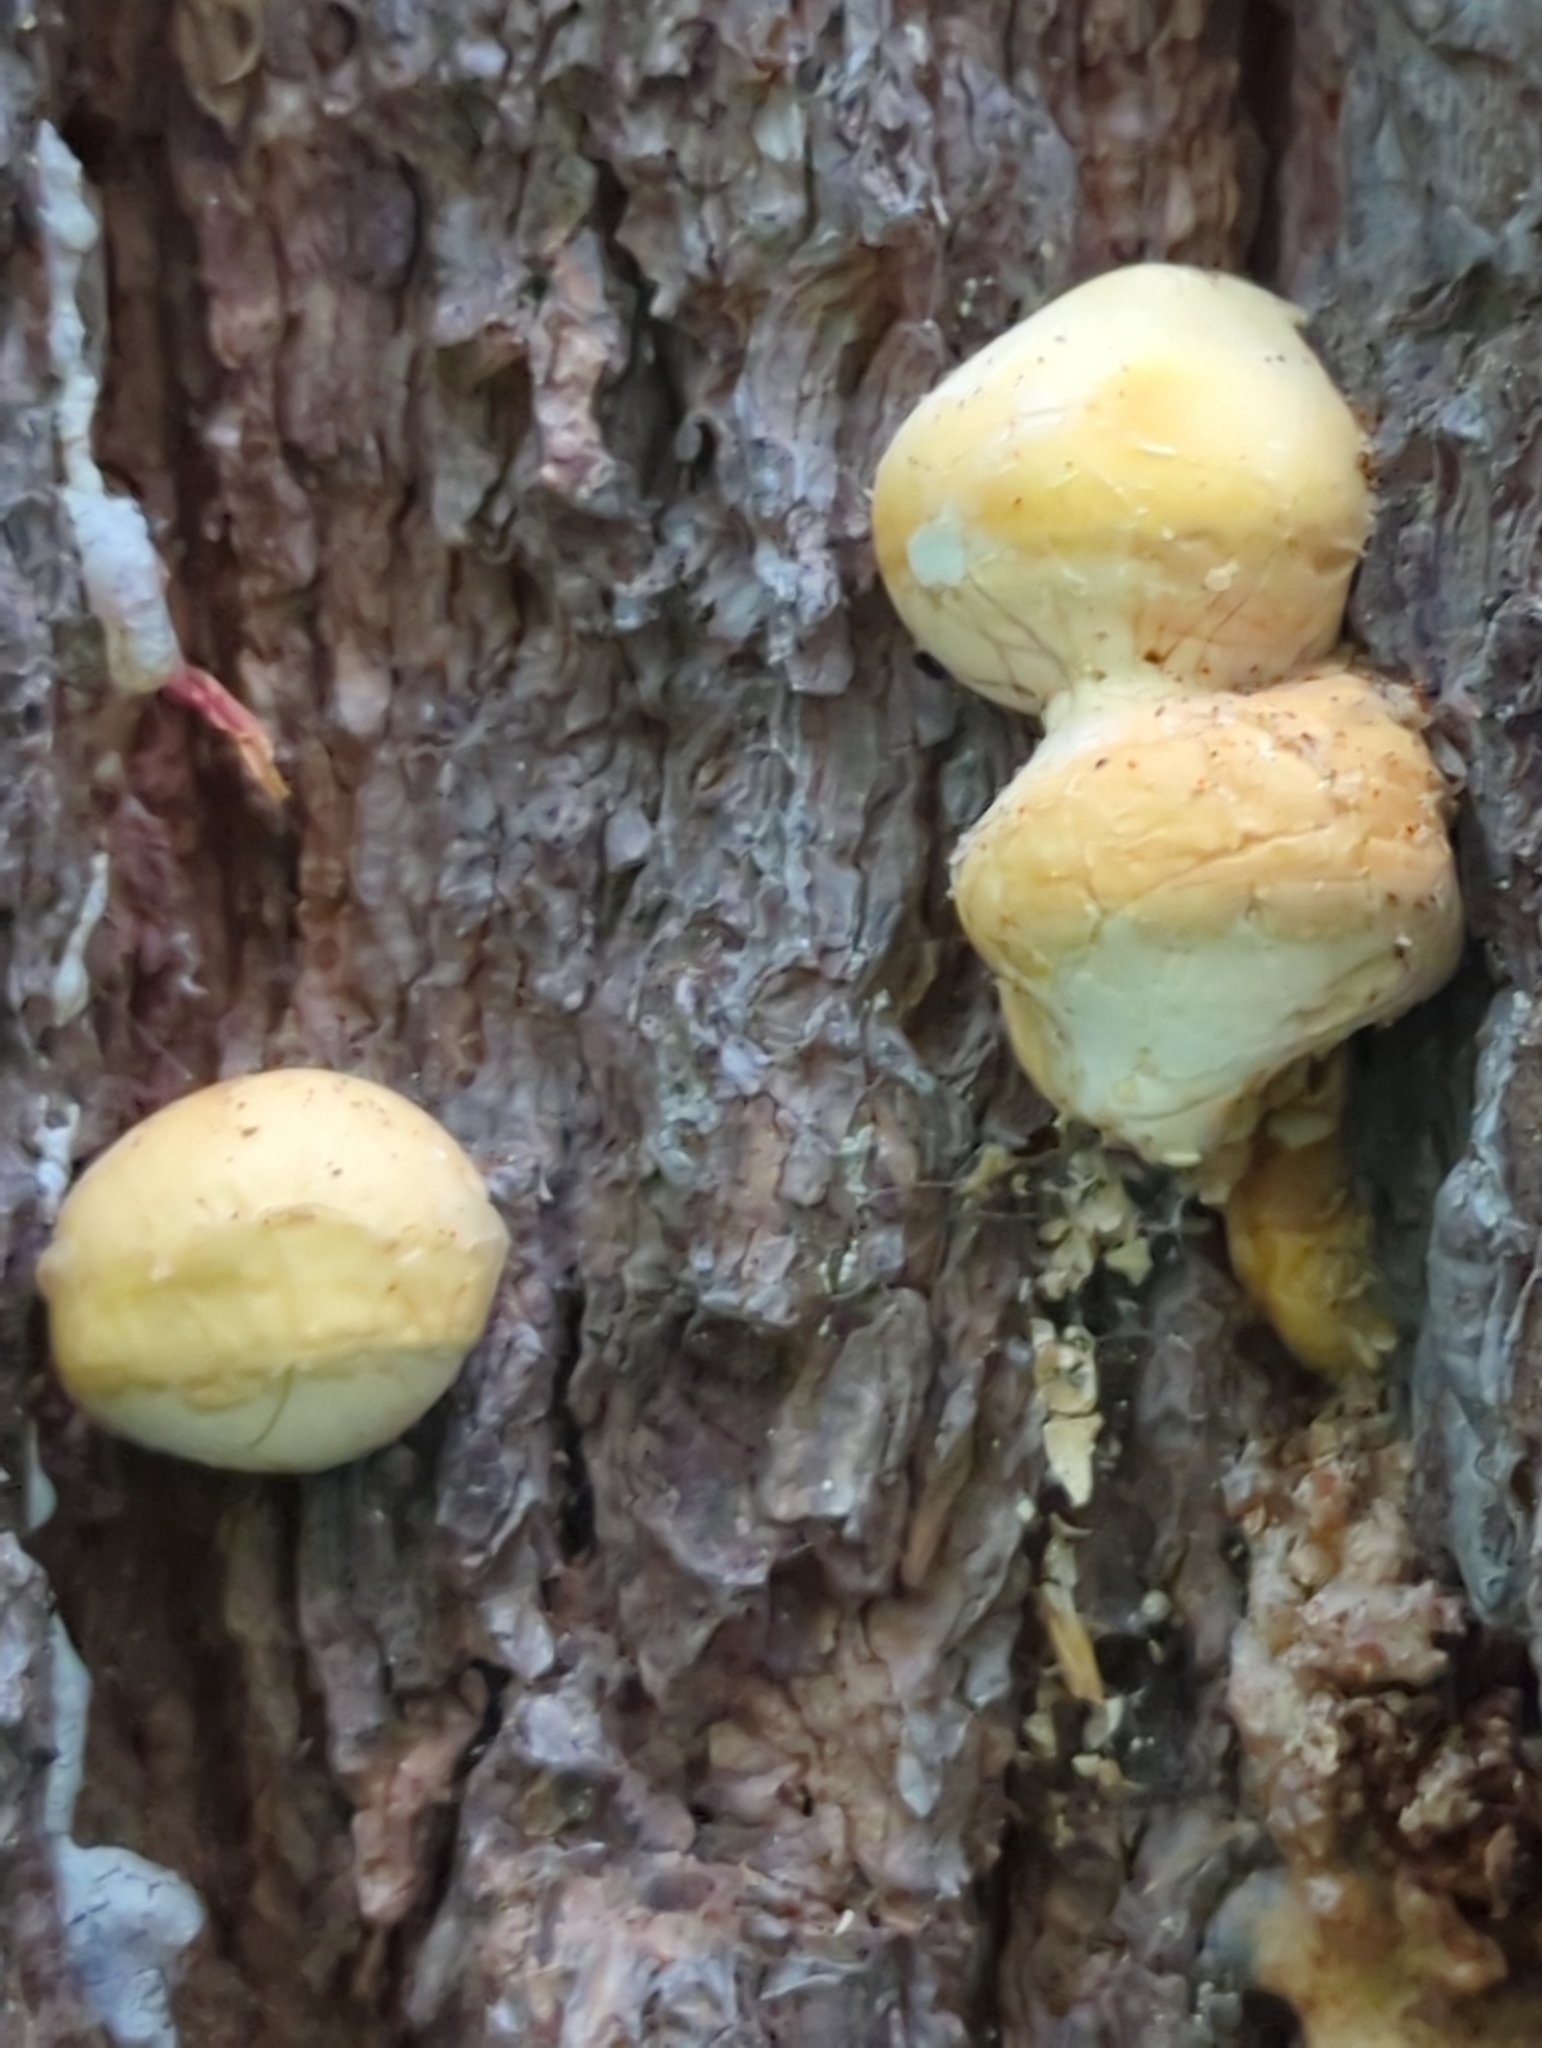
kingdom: Fungi
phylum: Basidiomycota
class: Agaricomycetes
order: Polyporales
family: Polyporaceae
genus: Cryptoporus
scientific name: Cryptoporus volvatus
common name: Veiled polypore
